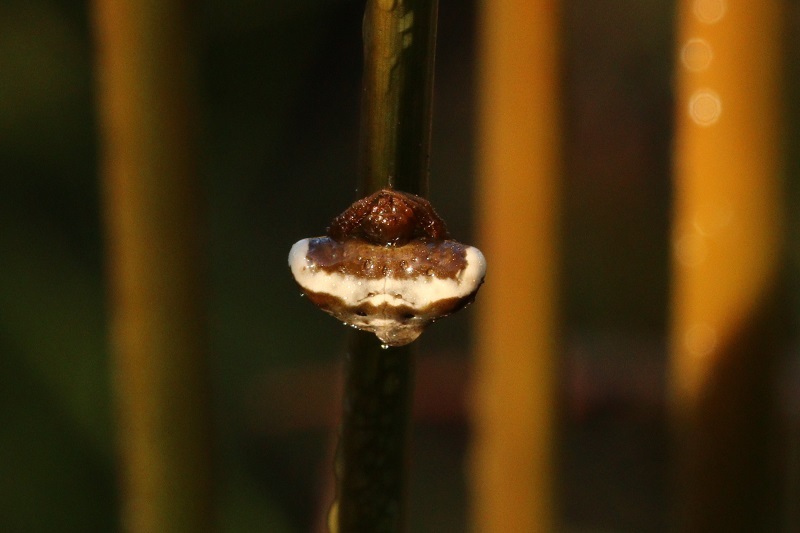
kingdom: Animalia
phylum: Arthropoda
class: Arachnida
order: Araneae
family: Araneidae
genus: Cyrtarachne
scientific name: Cyrtarachne ixoides
